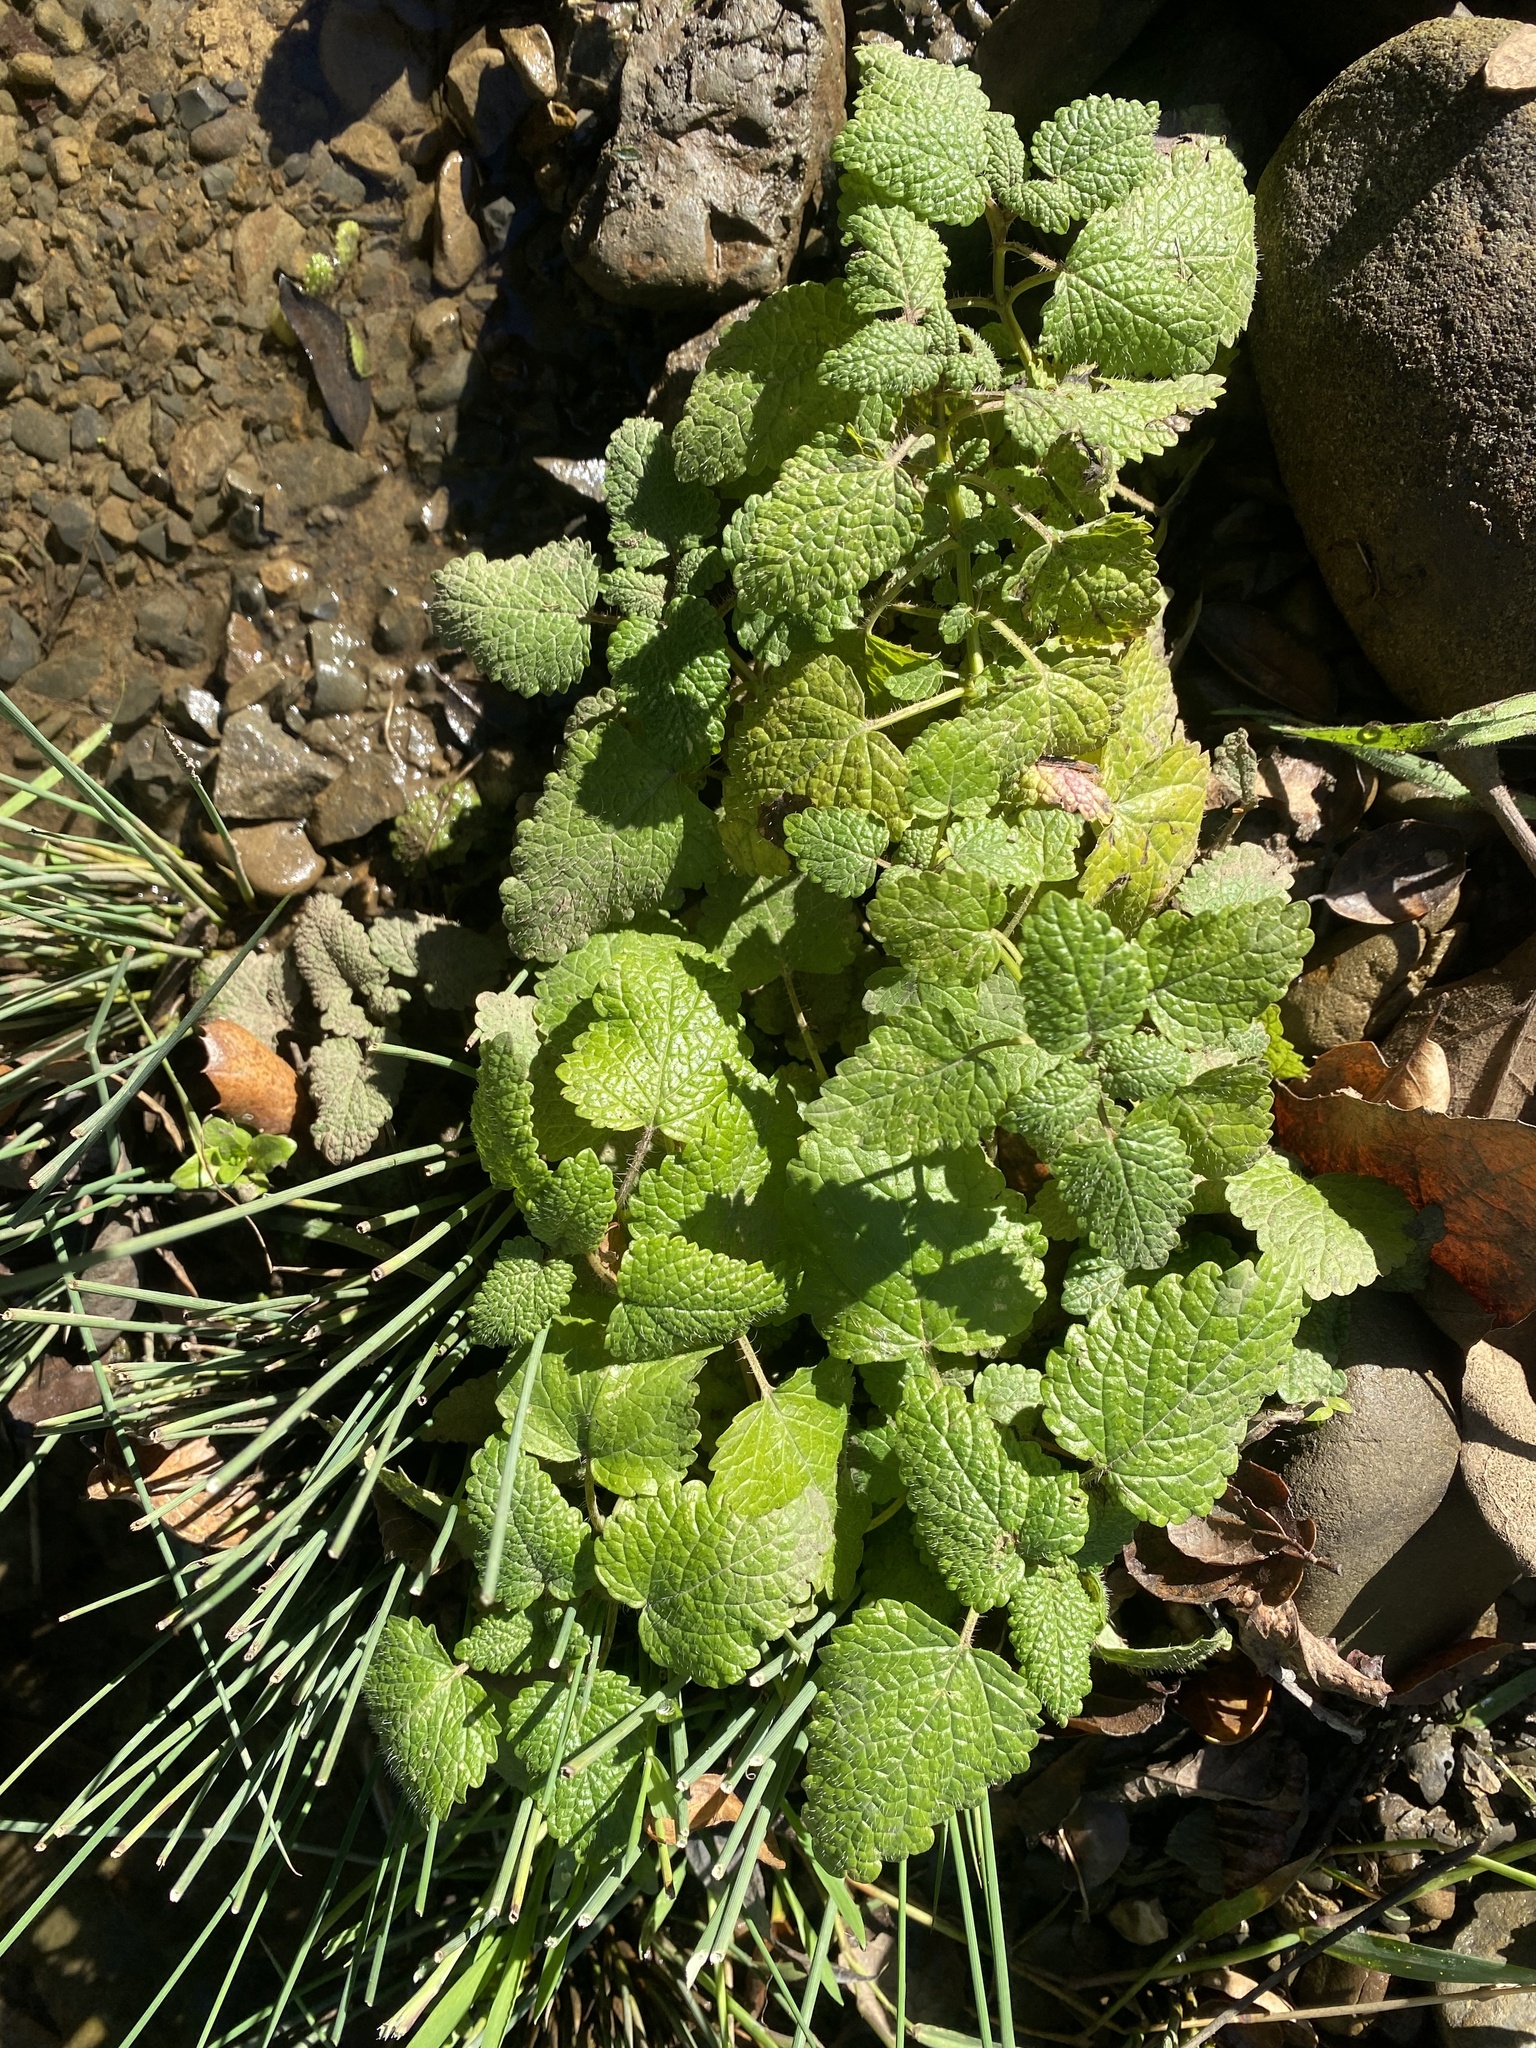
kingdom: Plantae
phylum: Tracheophyta
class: Magnoliopsida
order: Lamiales
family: Lamiaceae
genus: Melissa
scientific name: Melissa officinalis
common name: Balm
